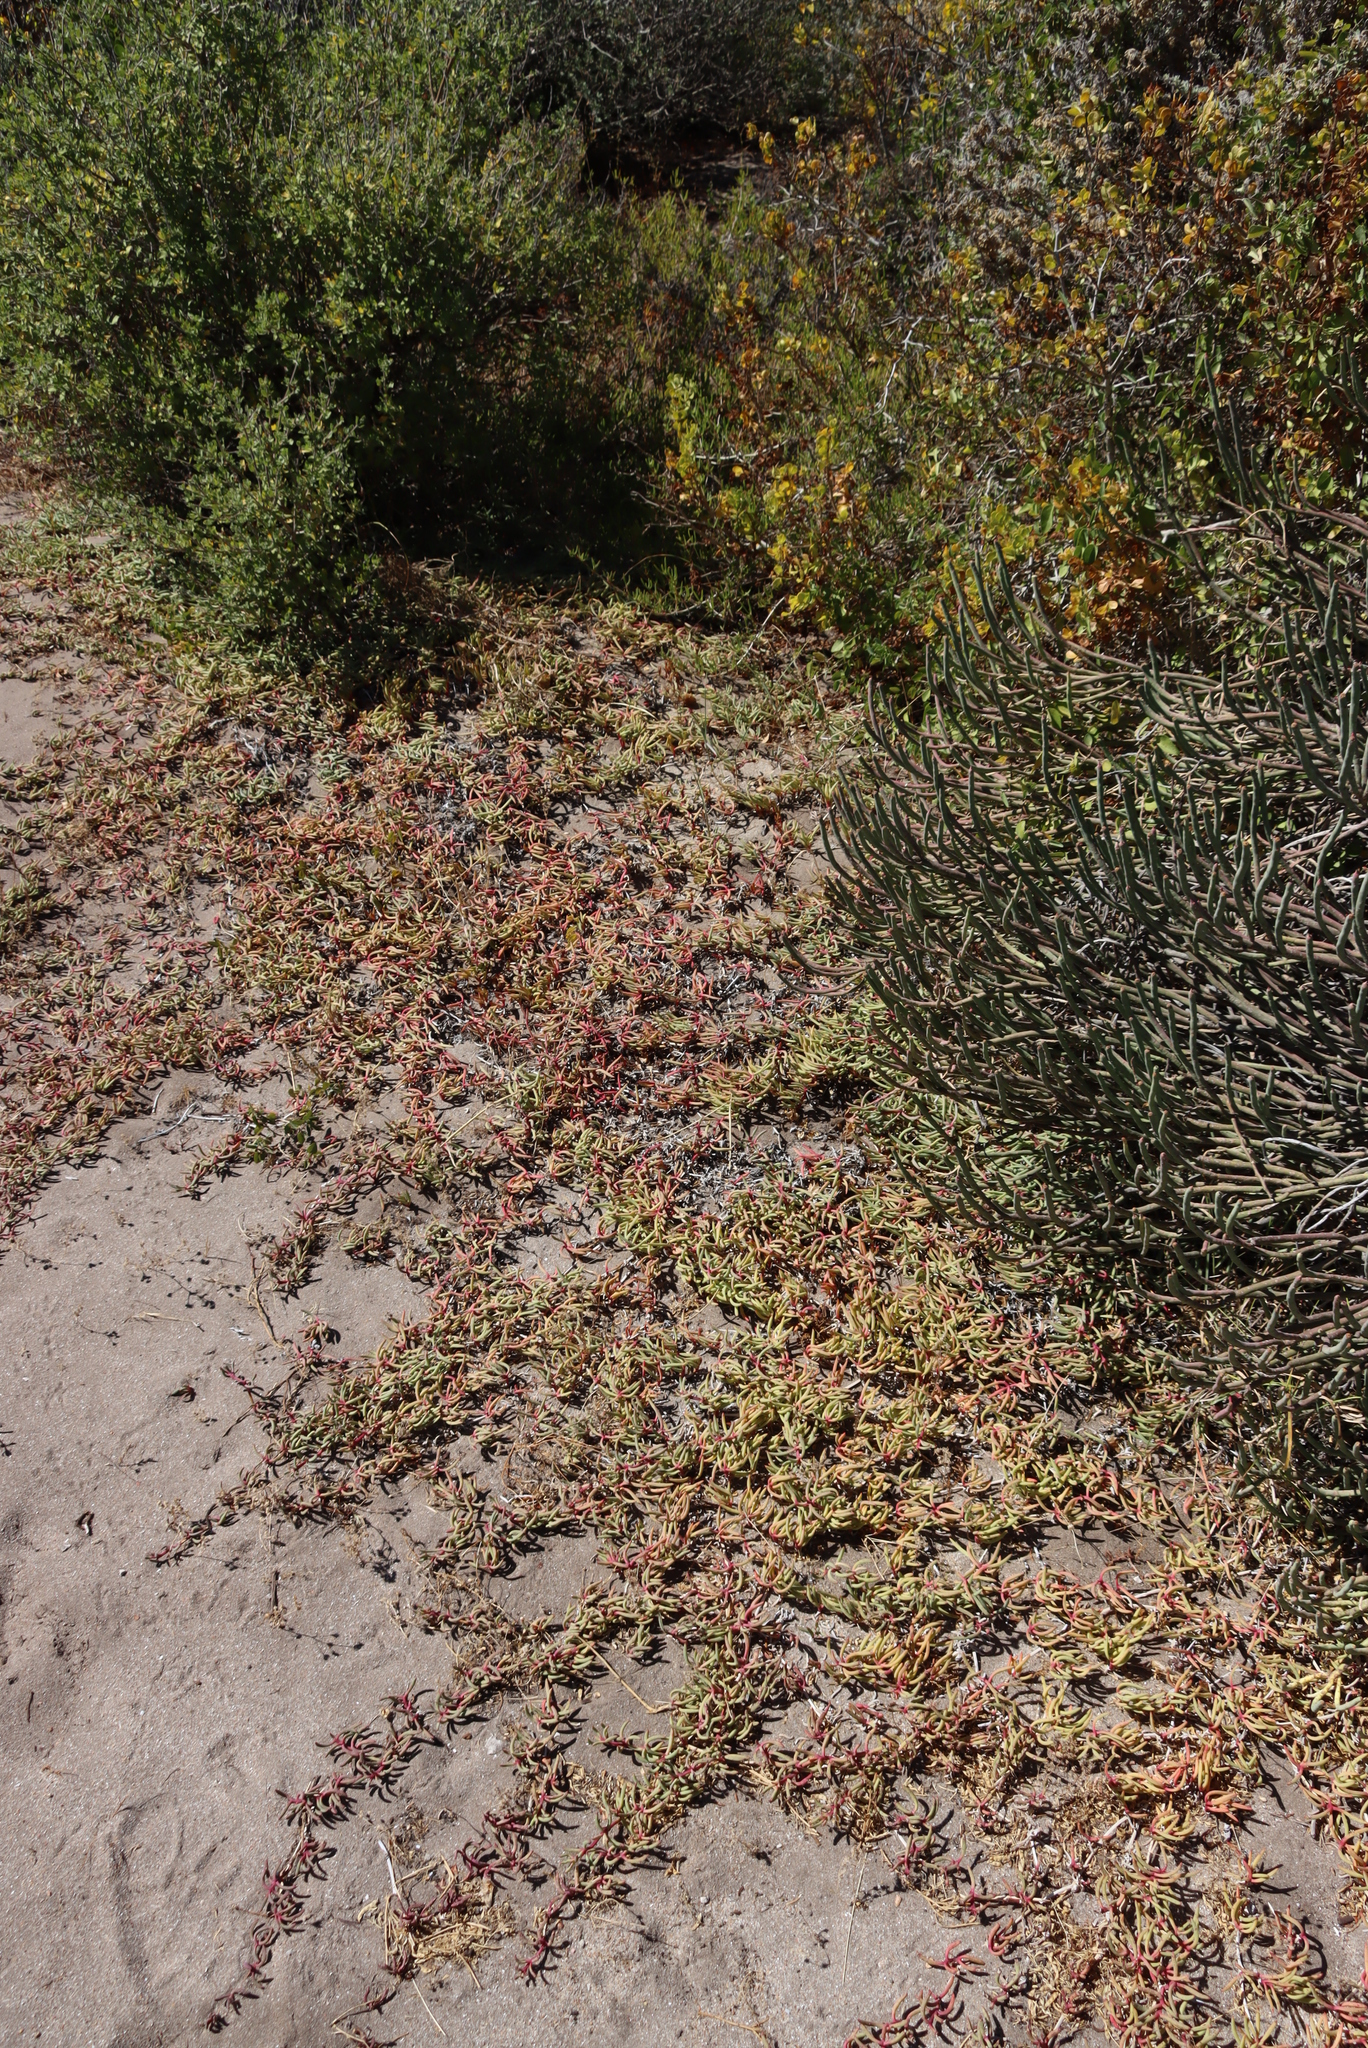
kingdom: Plantae
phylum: Tracheophyta
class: Magnoliopsida
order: Caryophyllales
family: Aizoaceae
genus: Jordaaniella
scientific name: Jordaaniella dubia
